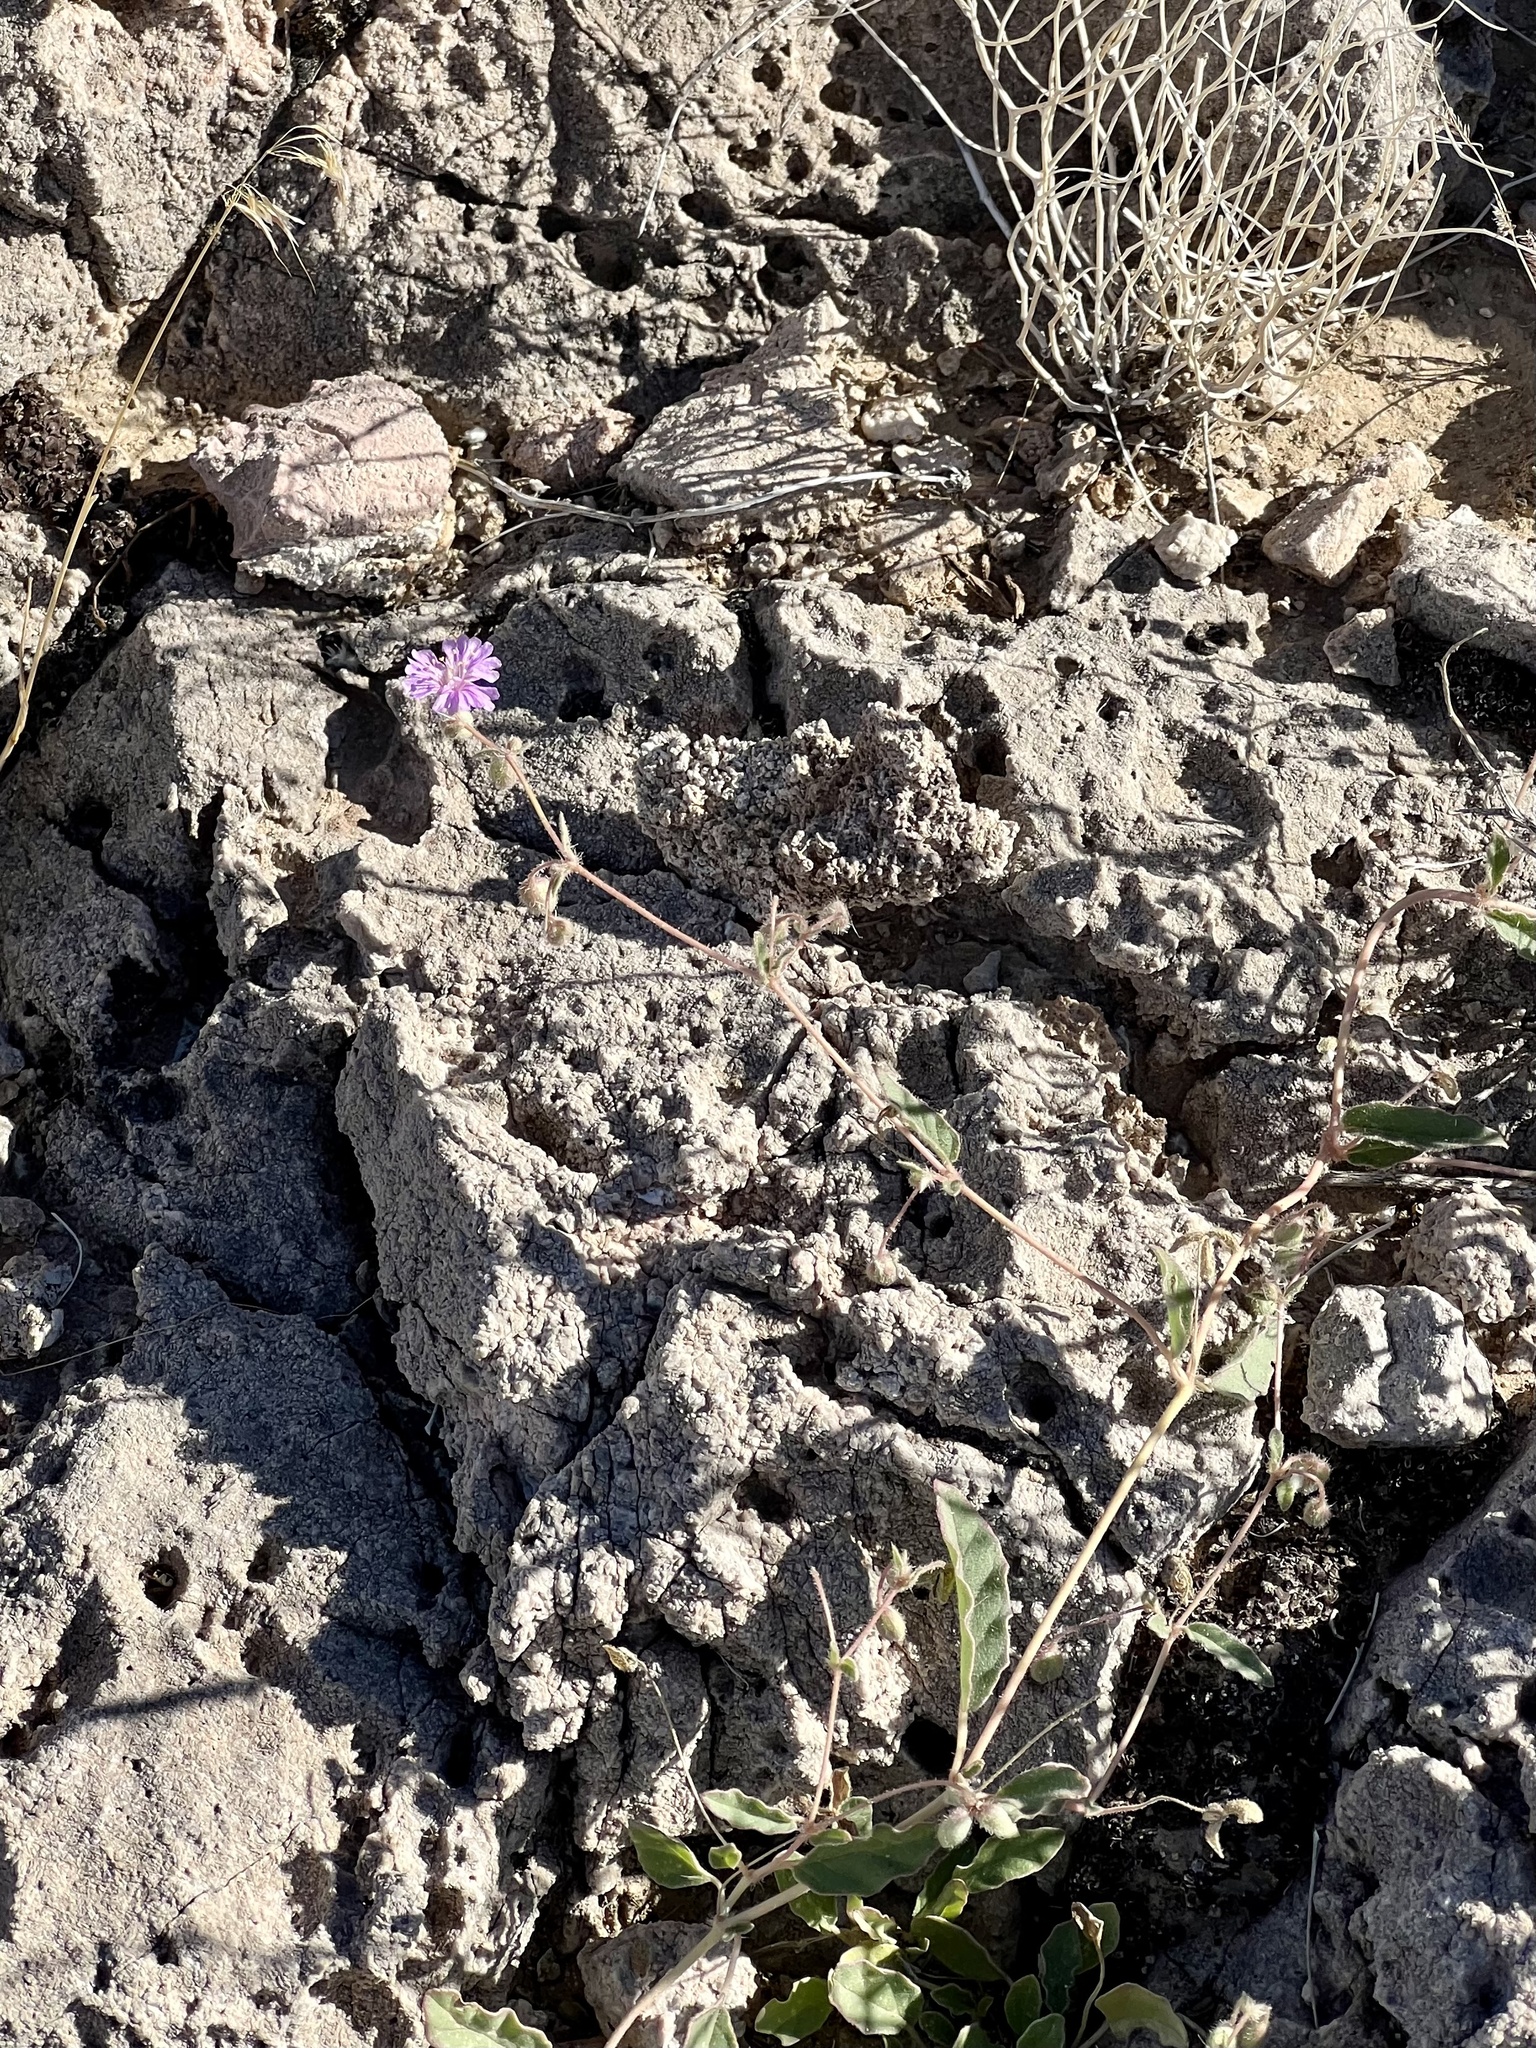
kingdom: Plantae
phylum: Tracheophyta
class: Magnoliopsida
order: Caryophyllales
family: Nyctaginaceae
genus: Allionia
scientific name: Allionia incarnata
